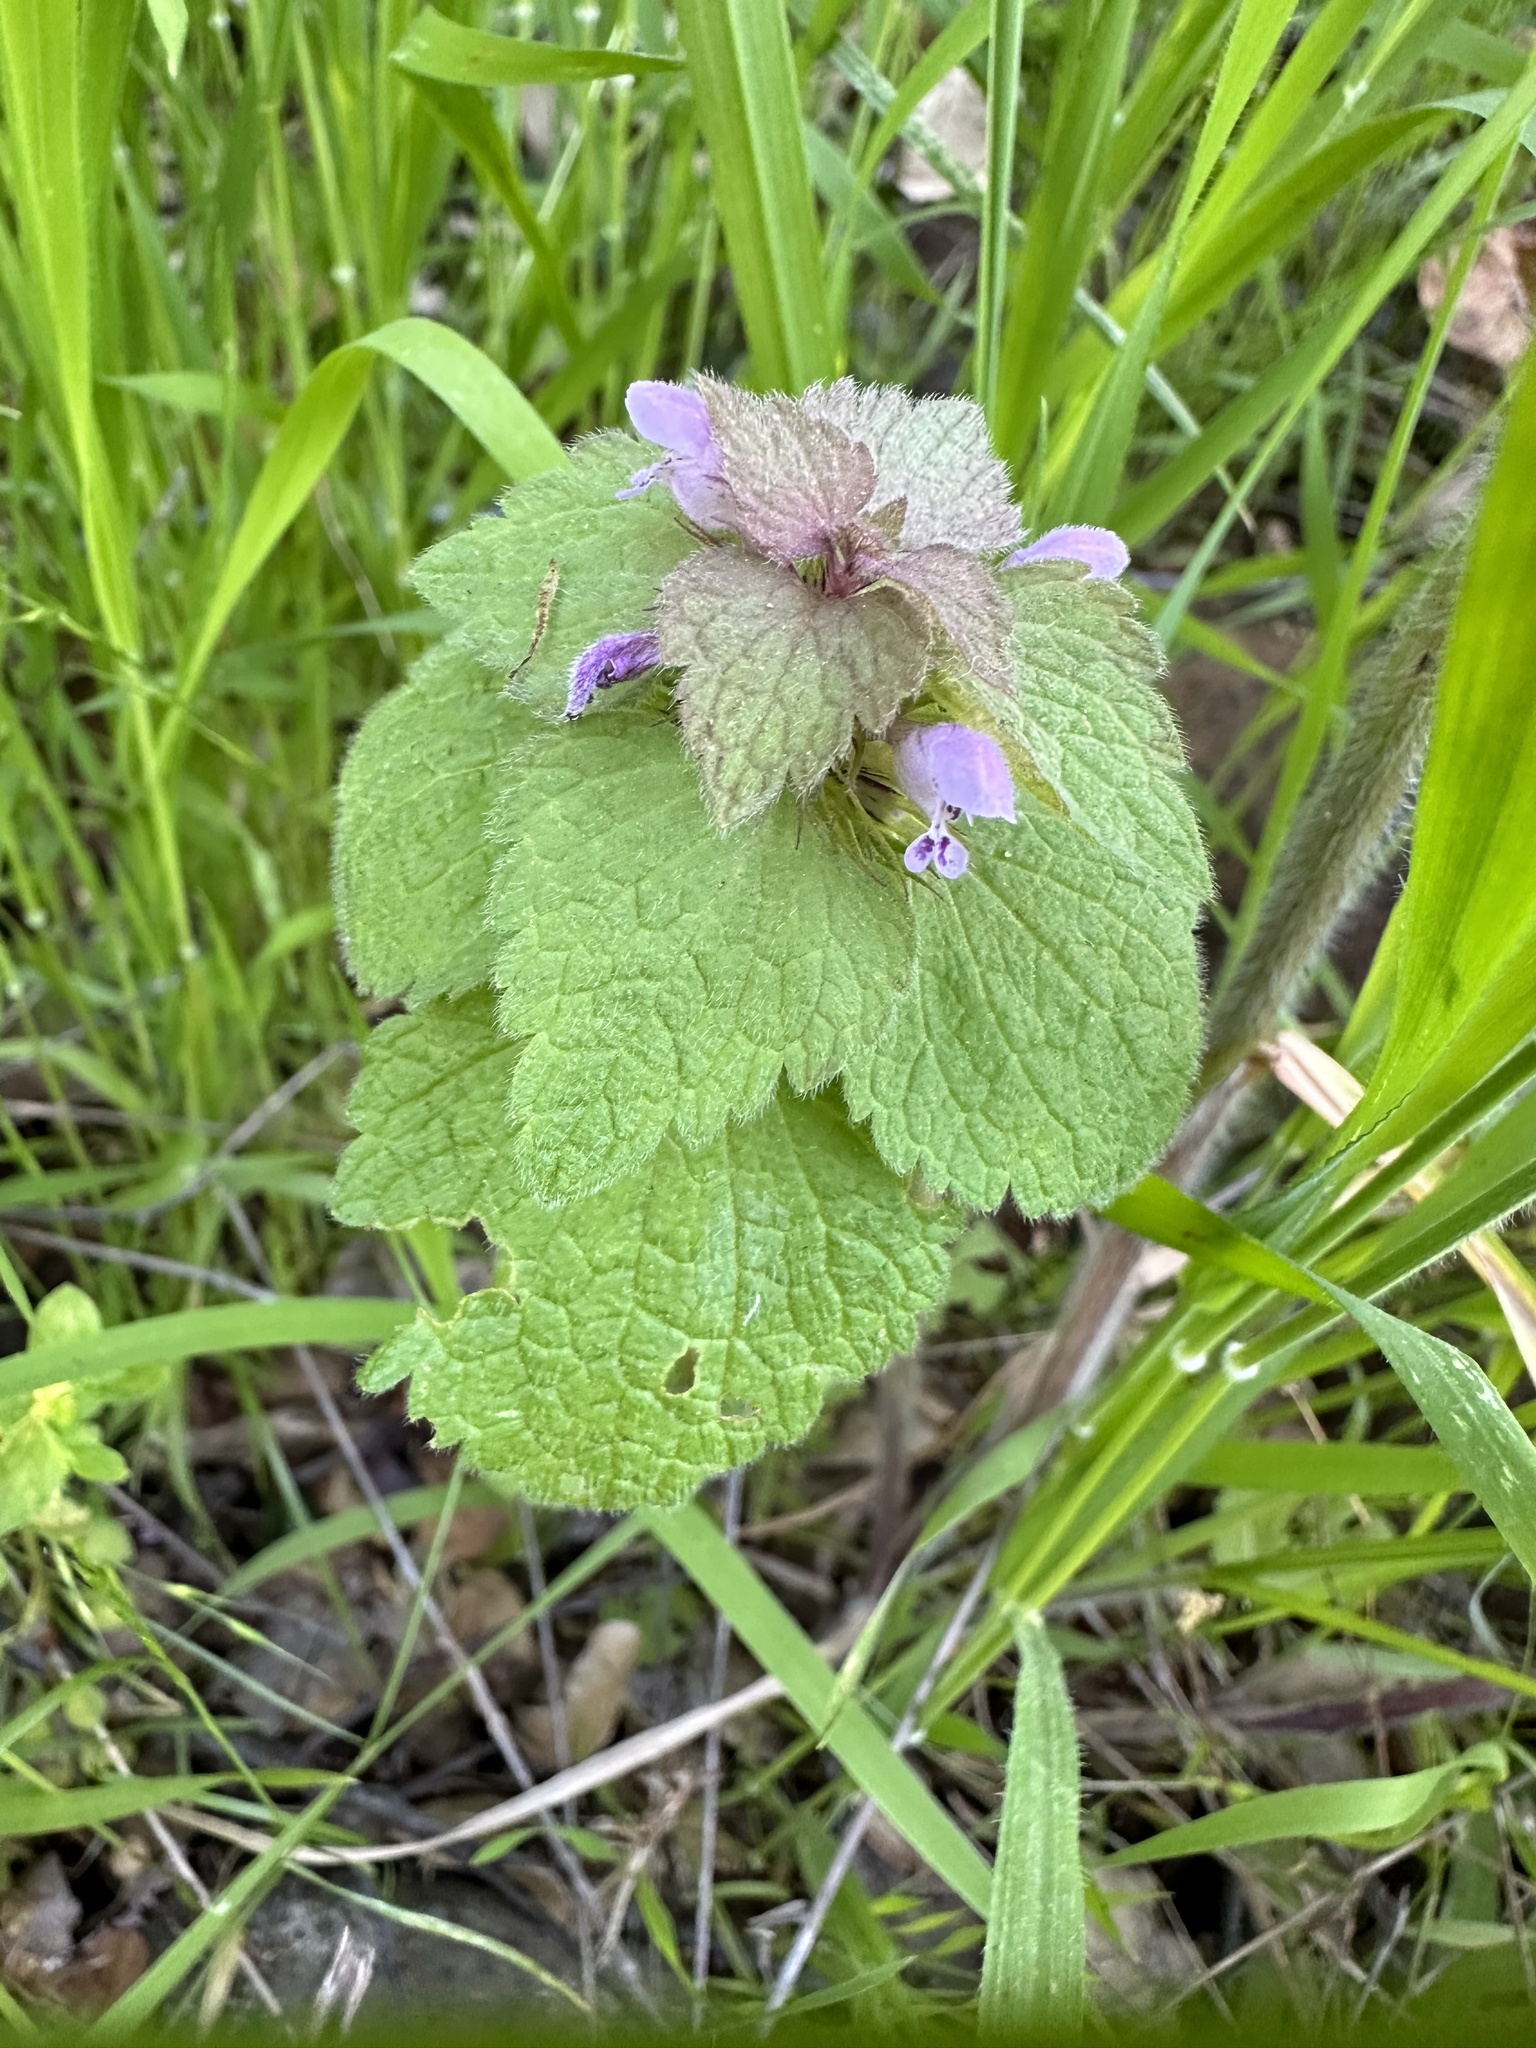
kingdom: Plantae
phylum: Tracheophyta
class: Magnoliopsida
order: Lamiales
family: Lamiaceae
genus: Lamium
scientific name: Lamium purpureum
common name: Red dead-nettle
